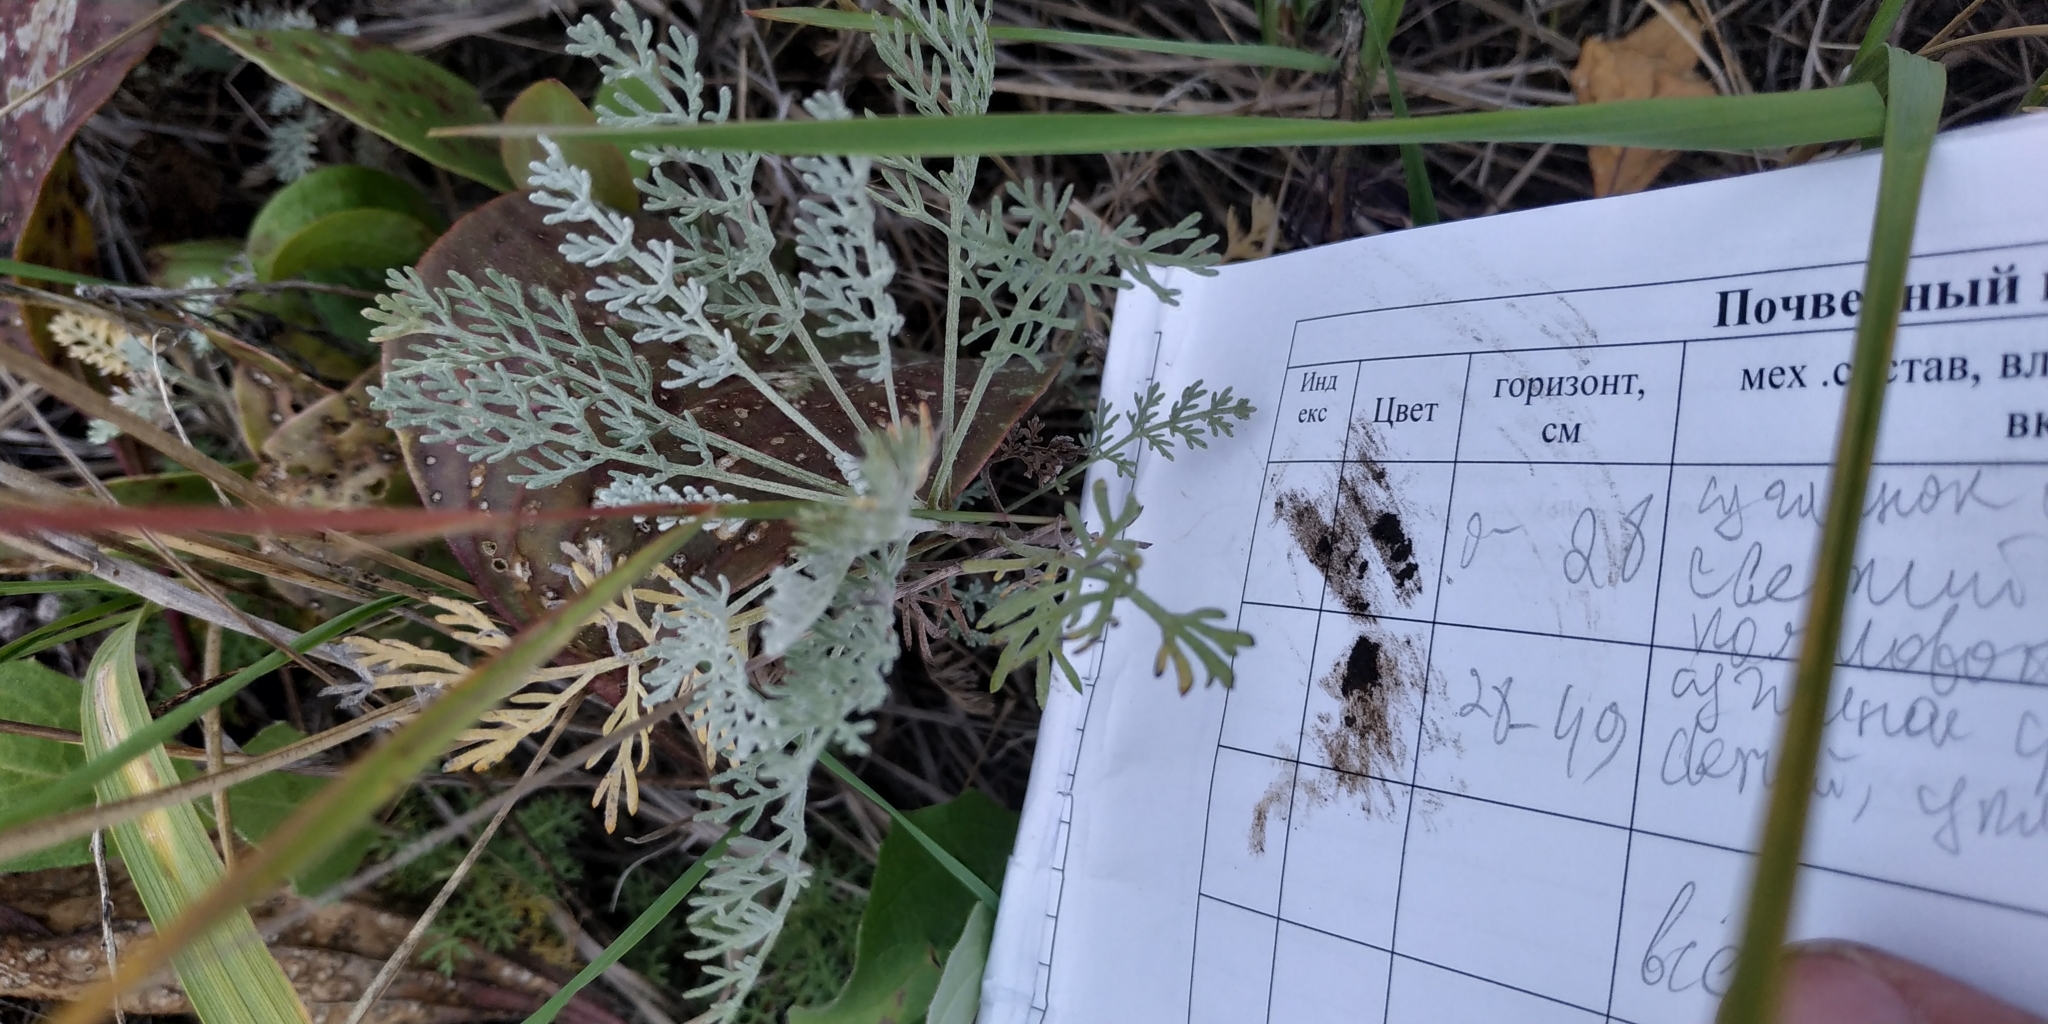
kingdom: Plantae
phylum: Tracheophyta
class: Magnoliopsida
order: Asterales
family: Asteraceae
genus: Artemisia
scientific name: Artemisia nitrosa
